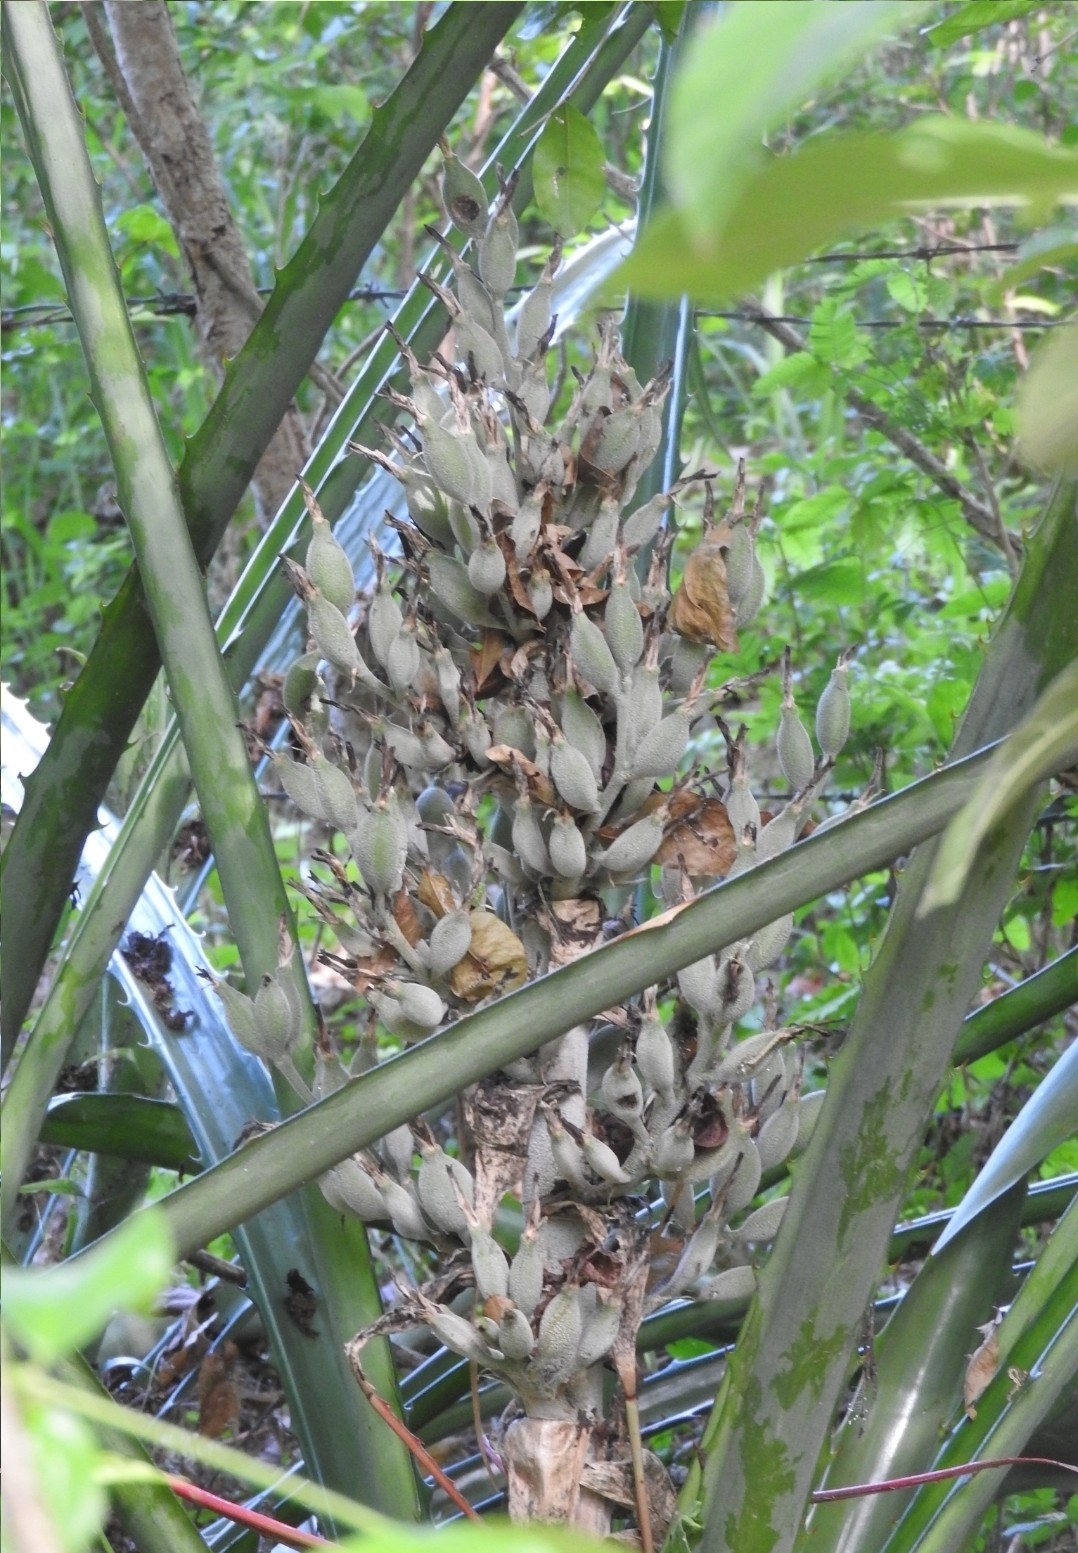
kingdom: Plantae
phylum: Tracheophyta
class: Liliopsida
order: Poales
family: Bromeliaceae
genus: Bromelia
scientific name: Bromelia pinguin
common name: Pinguin
